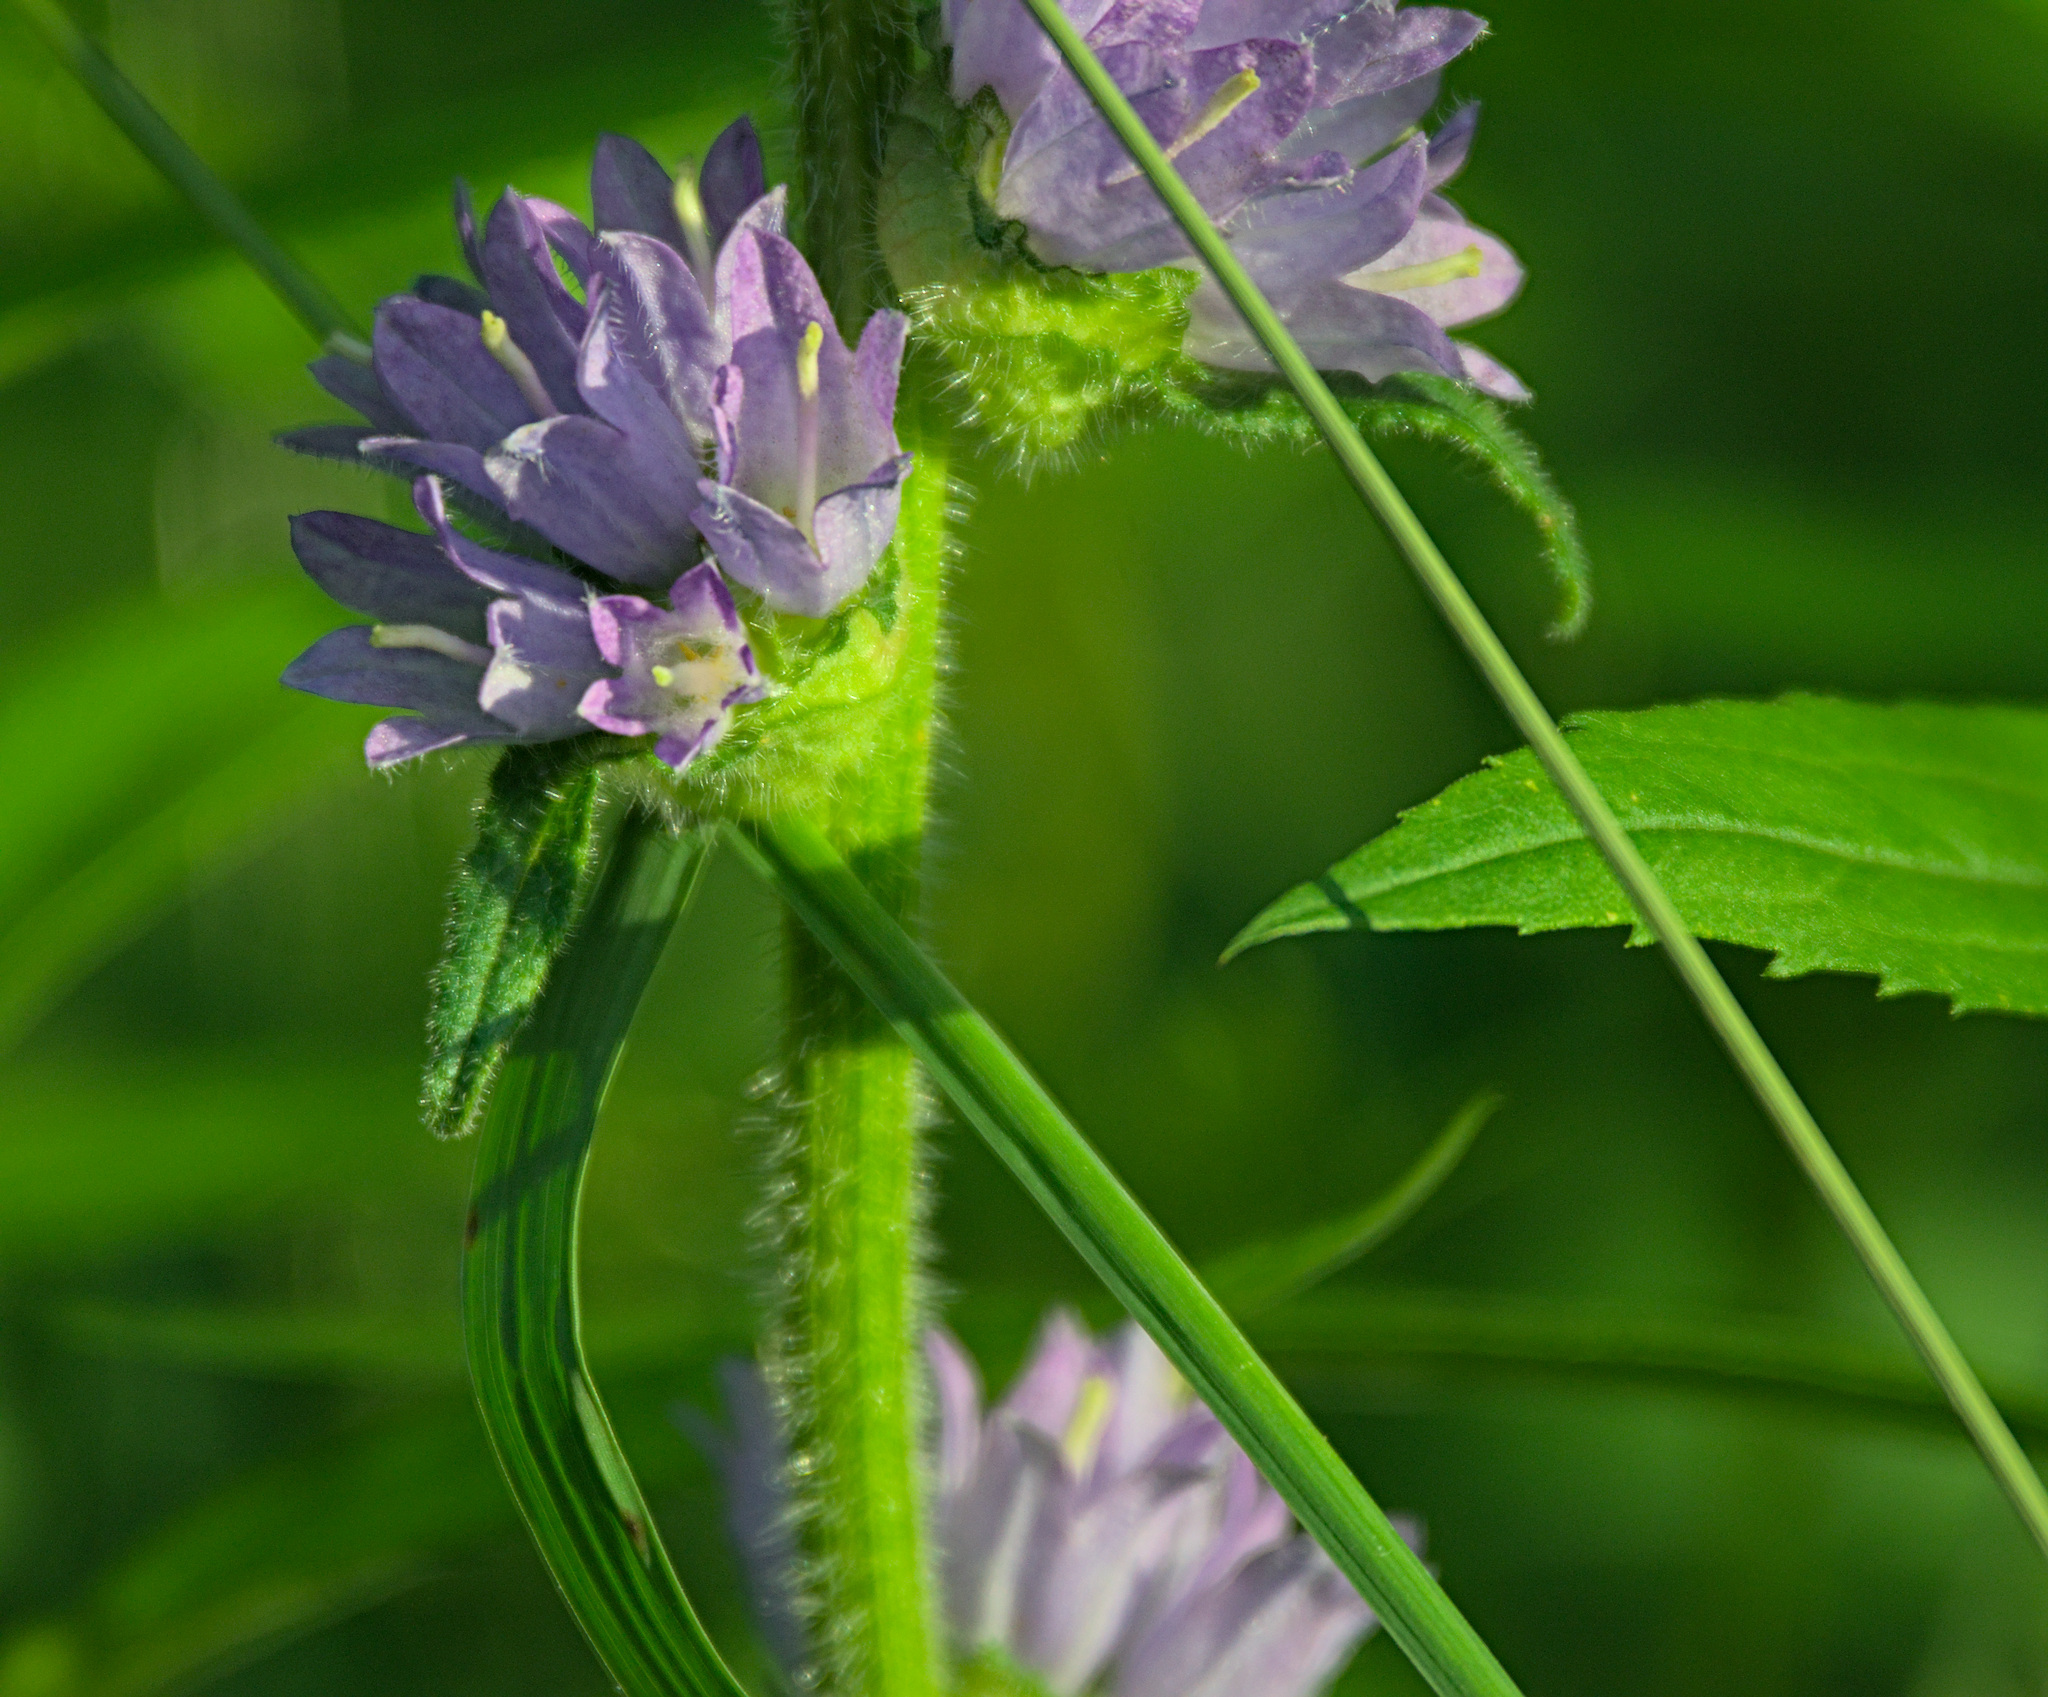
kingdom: Plantae
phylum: Tracheophyta
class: Magnoliopsida
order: Asterales
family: Campanulaceae
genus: Campanula
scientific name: Campanula cervicaria
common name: Bristly bellflower
